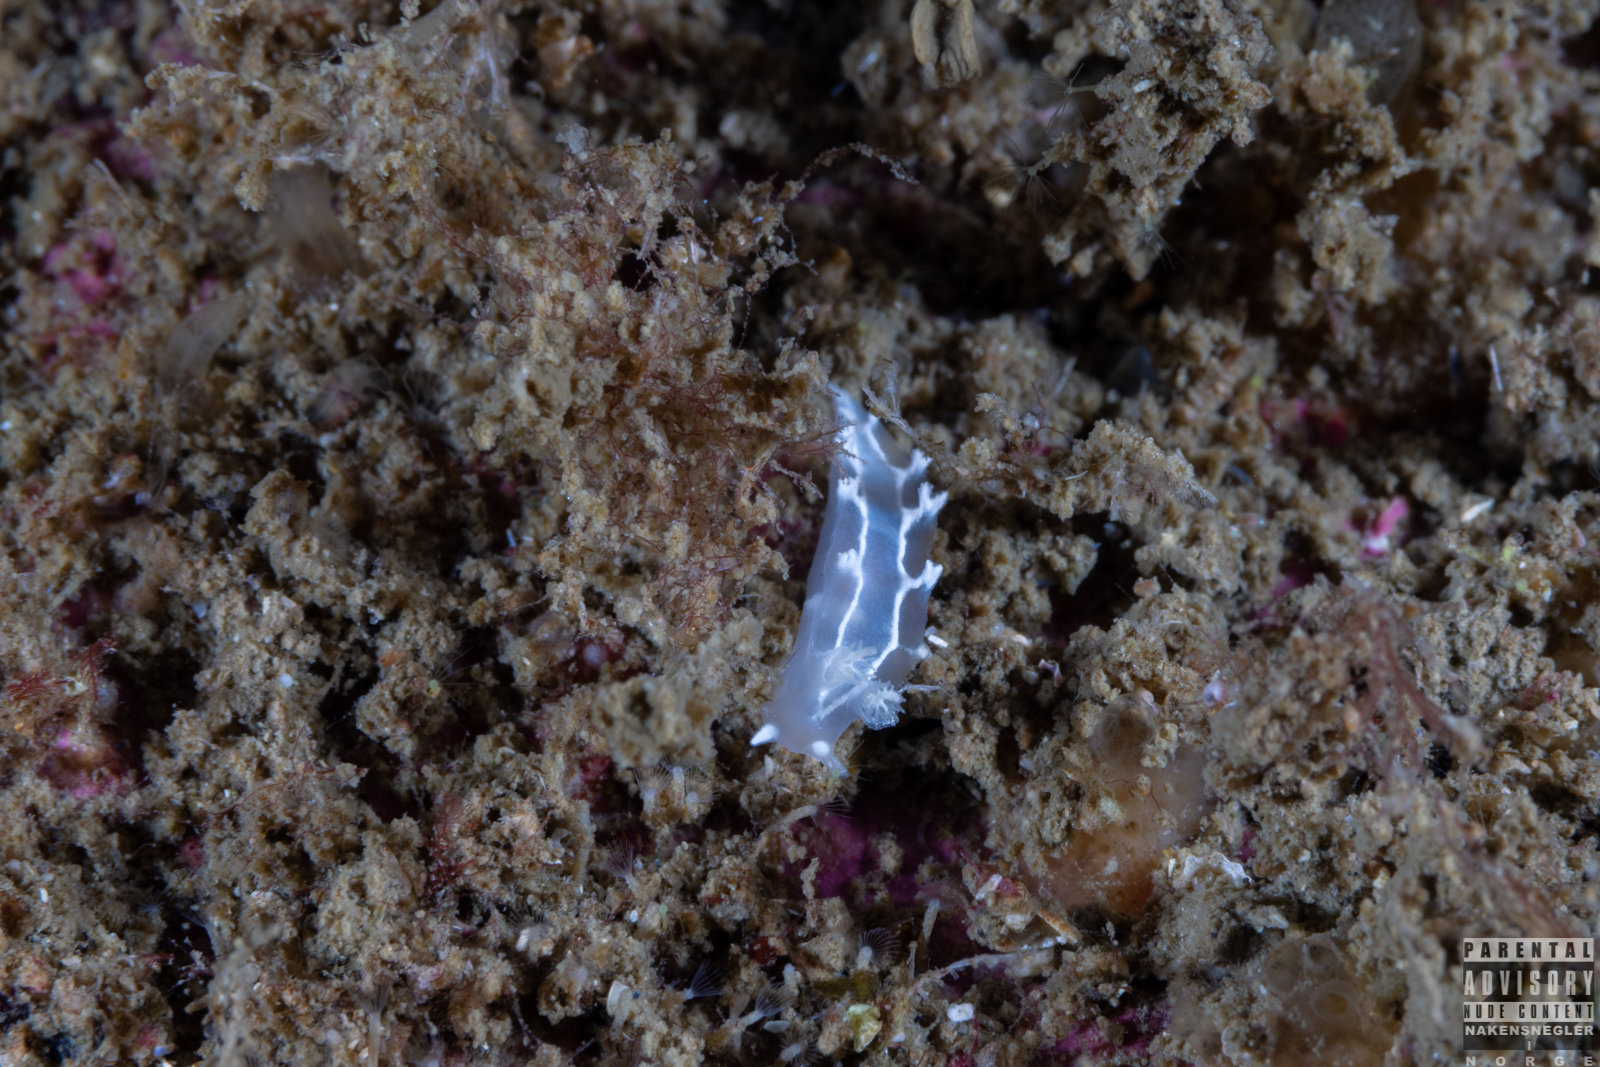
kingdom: Animalia
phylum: Mollusca
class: Gastropoda
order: Nudibranchia
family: Tritoniidae
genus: Duvaucelia
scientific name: Duvaucelia lineata
